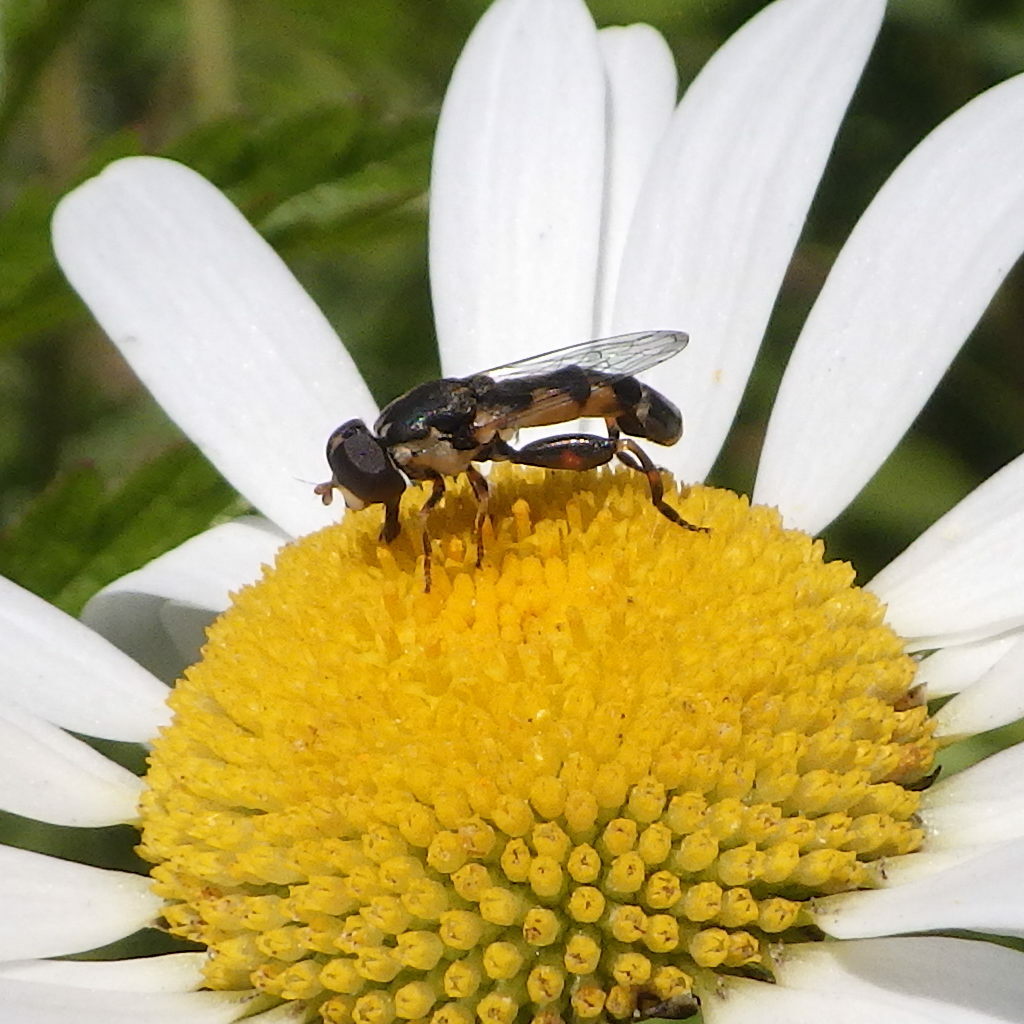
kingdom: Animalia
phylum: Arthropoda
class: Insecta
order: Diptera
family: Syrphidae
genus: Syritta
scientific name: Syritta pipiens
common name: Hover fly
